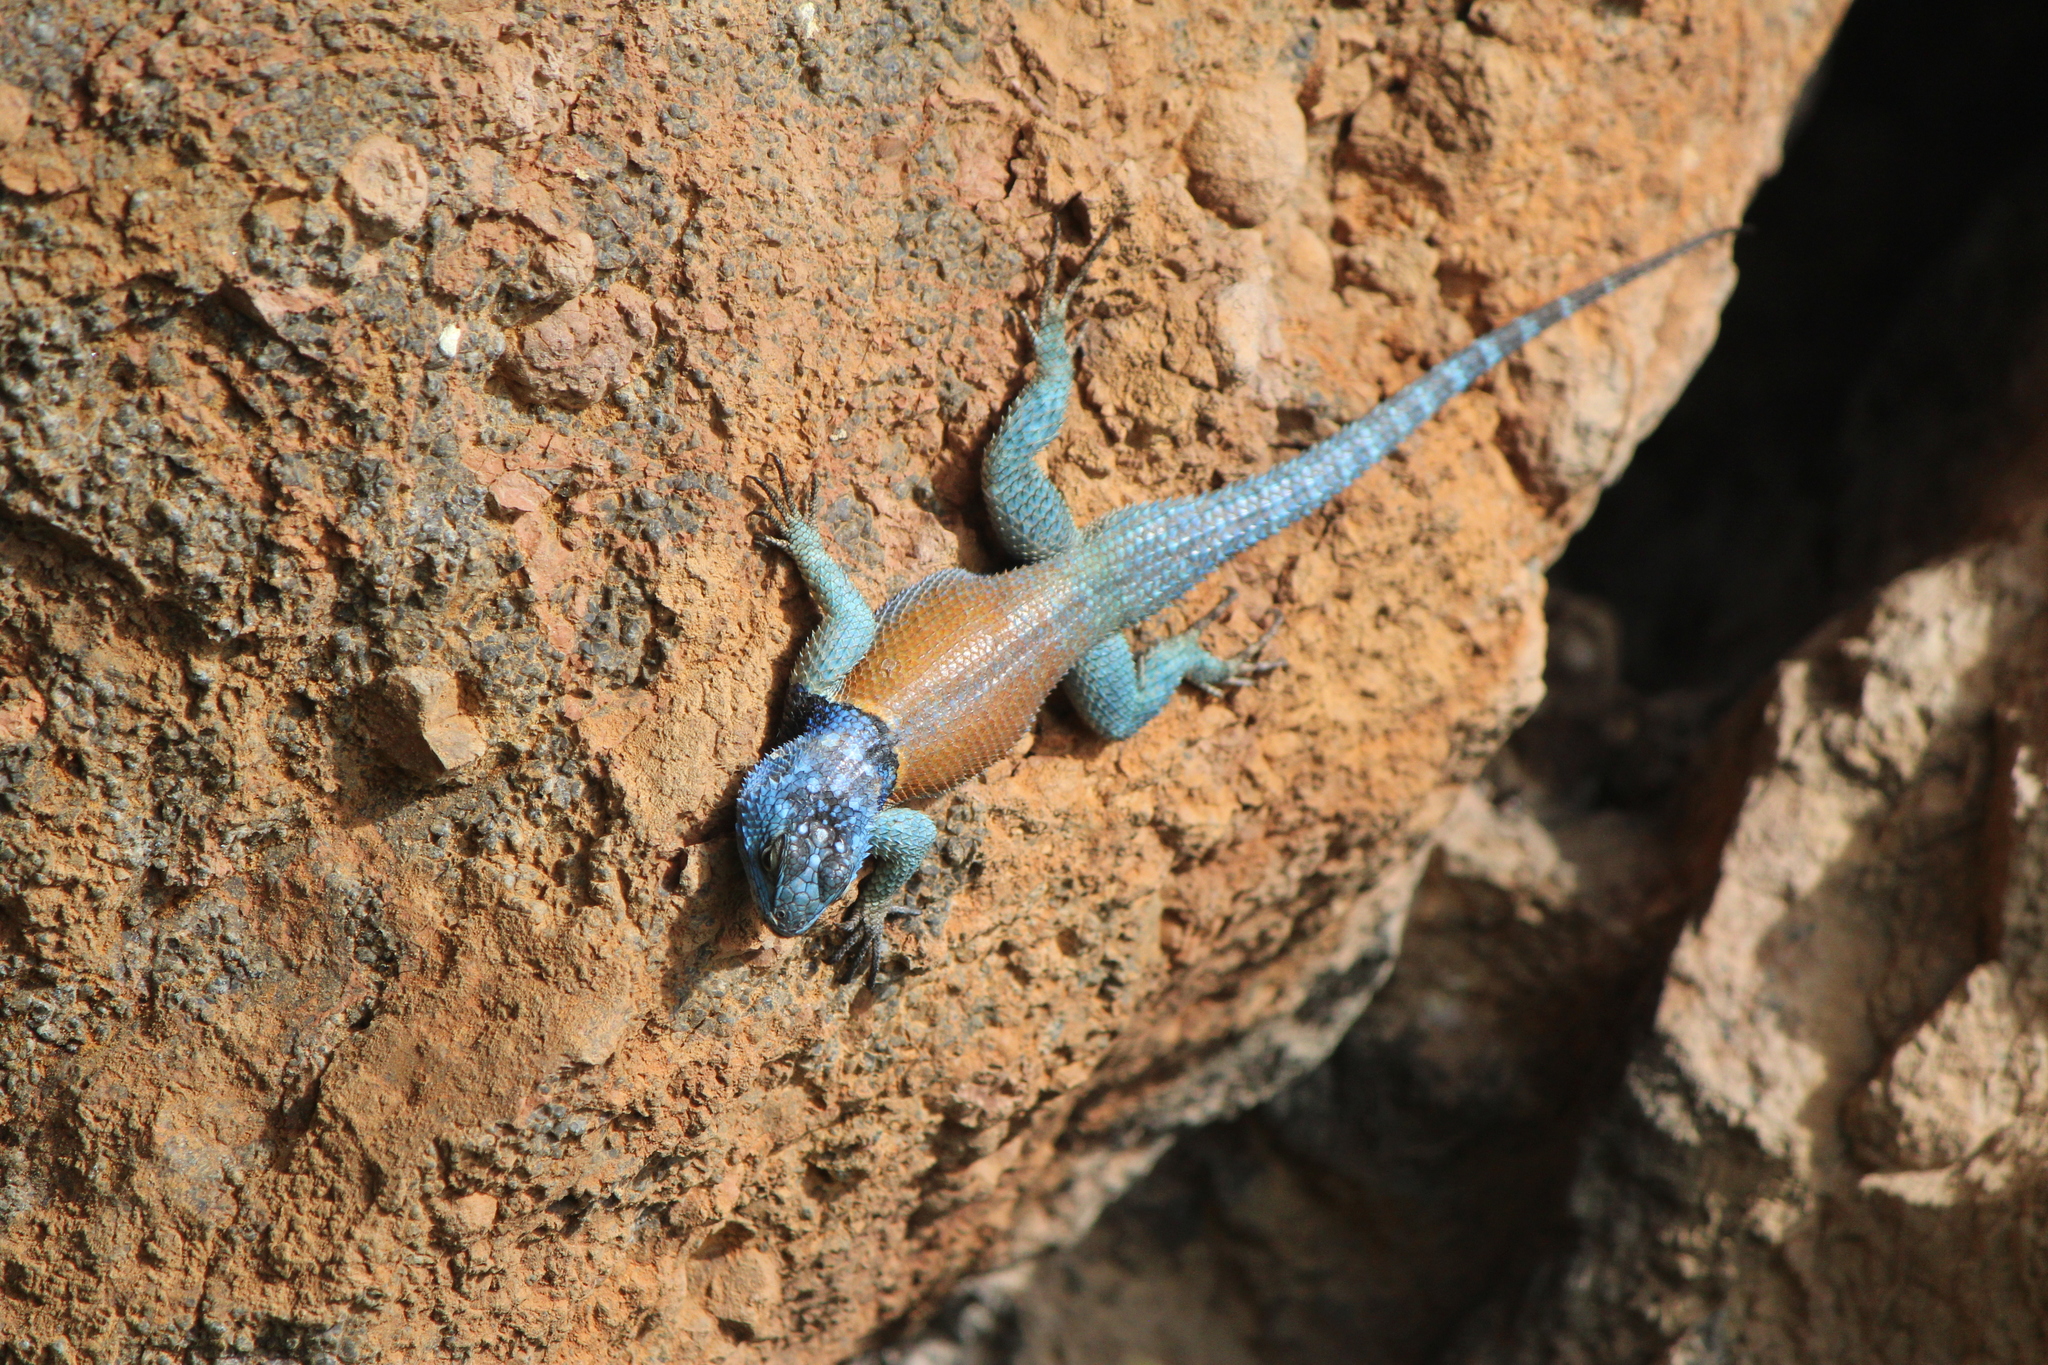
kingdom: Animalia
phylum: Chordata
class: Squamata
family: Phrynosomatidae
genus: Sceloporus
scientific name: Sceloporus minor
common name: Minor lizard
